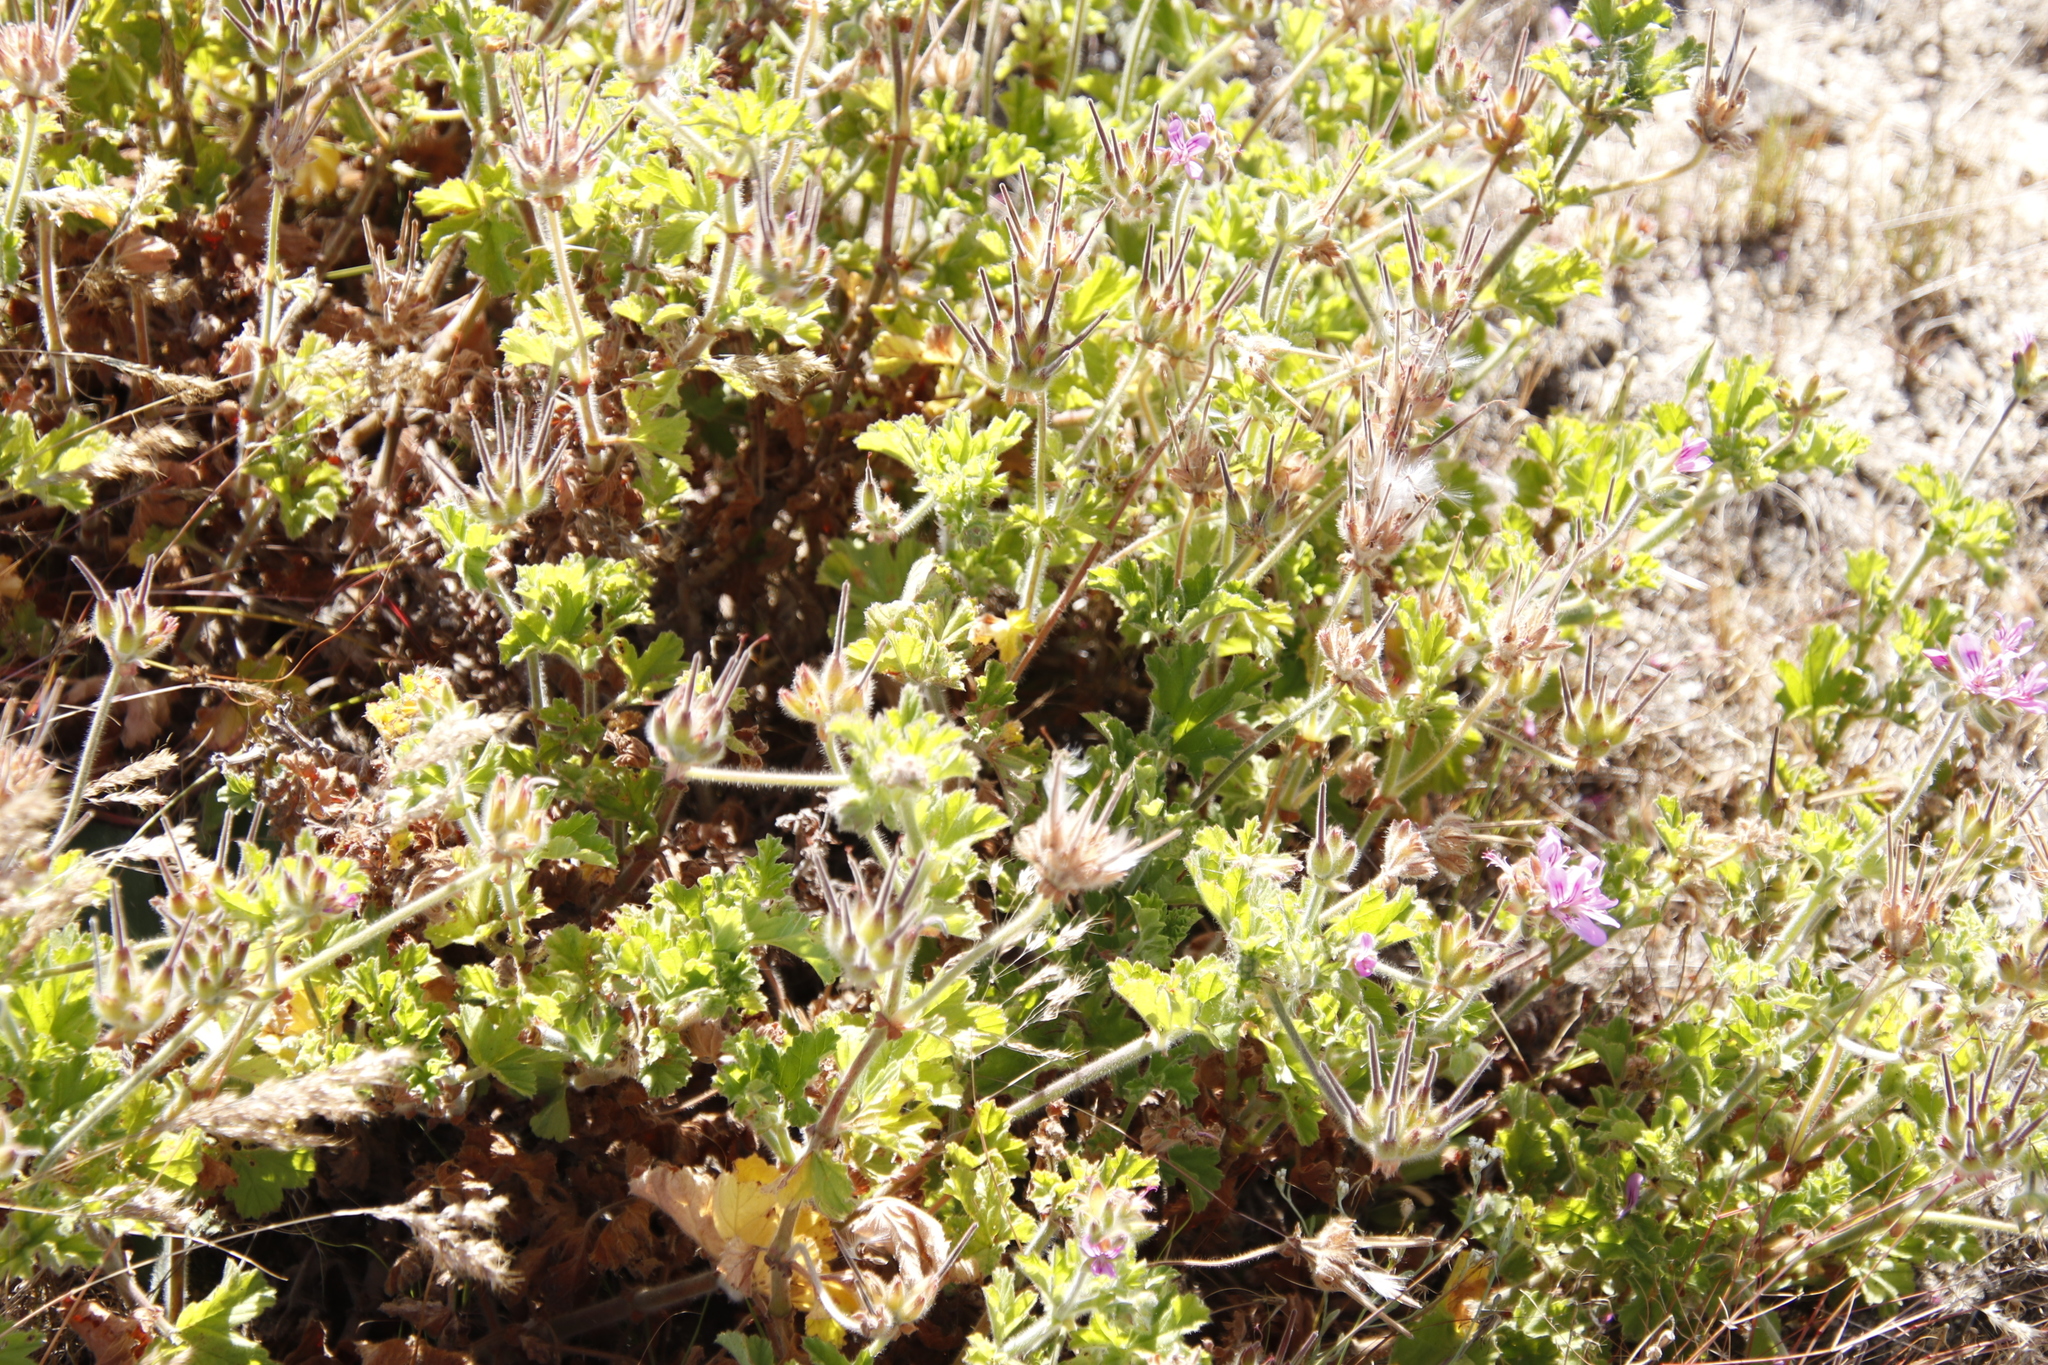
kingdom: Plantae
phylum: Tracheophyta
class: Magnoliopsida
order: Geraniales
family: Geraniaceae
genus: Pelargonium
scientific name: Pelargonium capitatum
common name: Rose scented geranium
